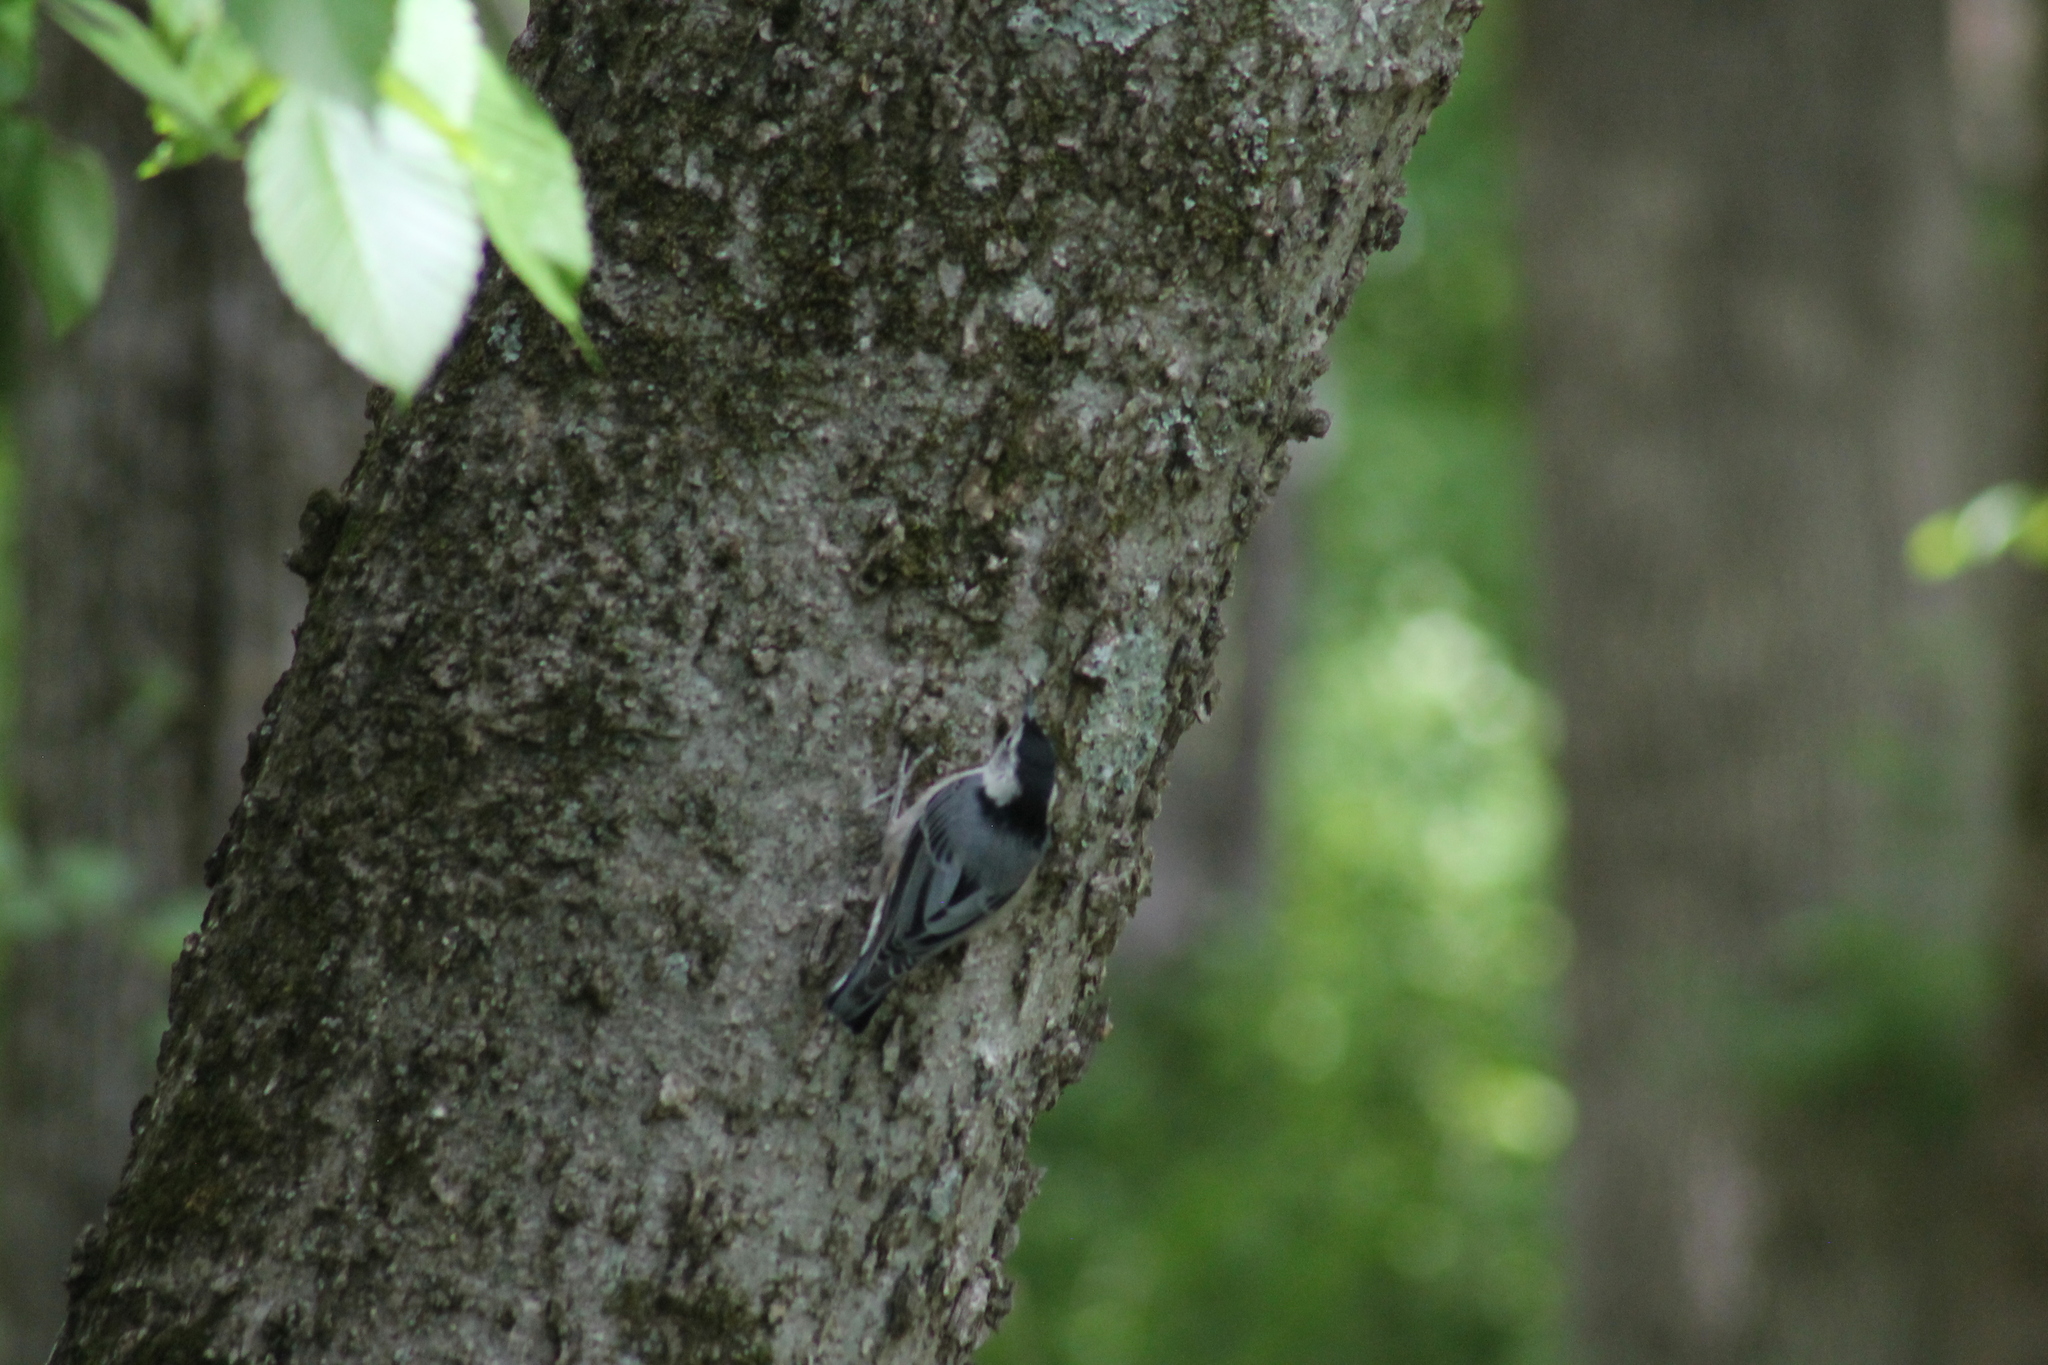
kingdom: Animalia
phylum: Chordata
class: Aves
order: Passeriformes
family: Sittidae
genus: Sitta
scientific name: Sitta carolinensis
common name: White-breasted nuthatch
